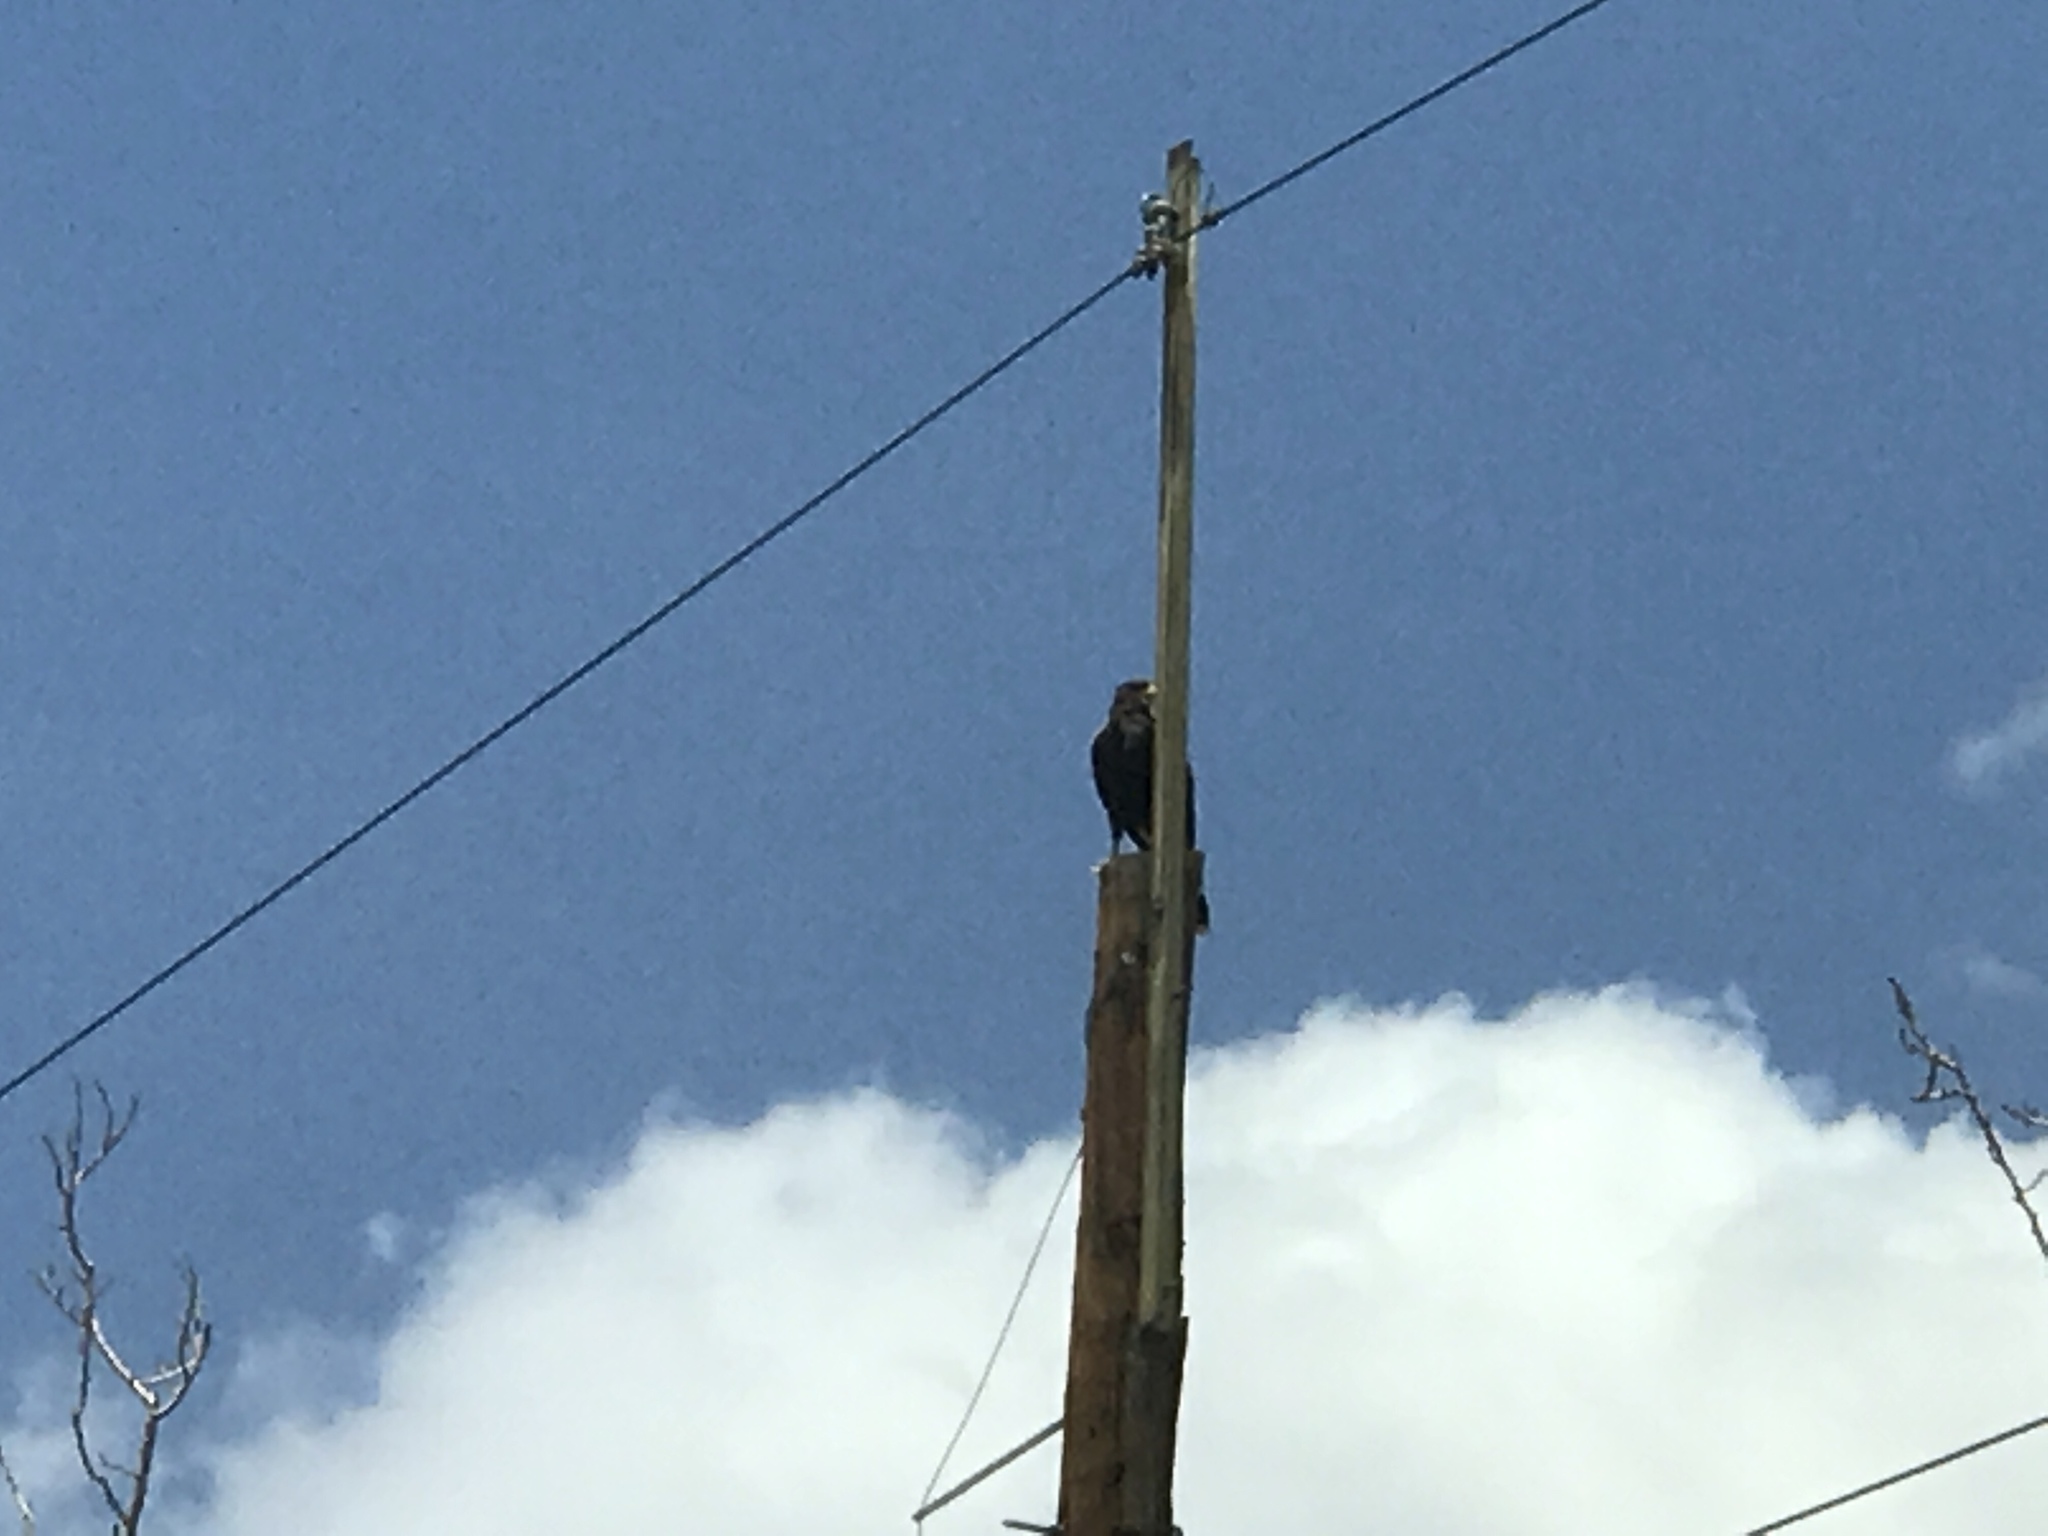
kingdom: Animalia
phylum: Chordata
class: Aves
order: Accipitriformes
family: Accipitridae
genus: Parabuteo
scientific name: Parabuteo unicinctus
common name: Harris's hawk
